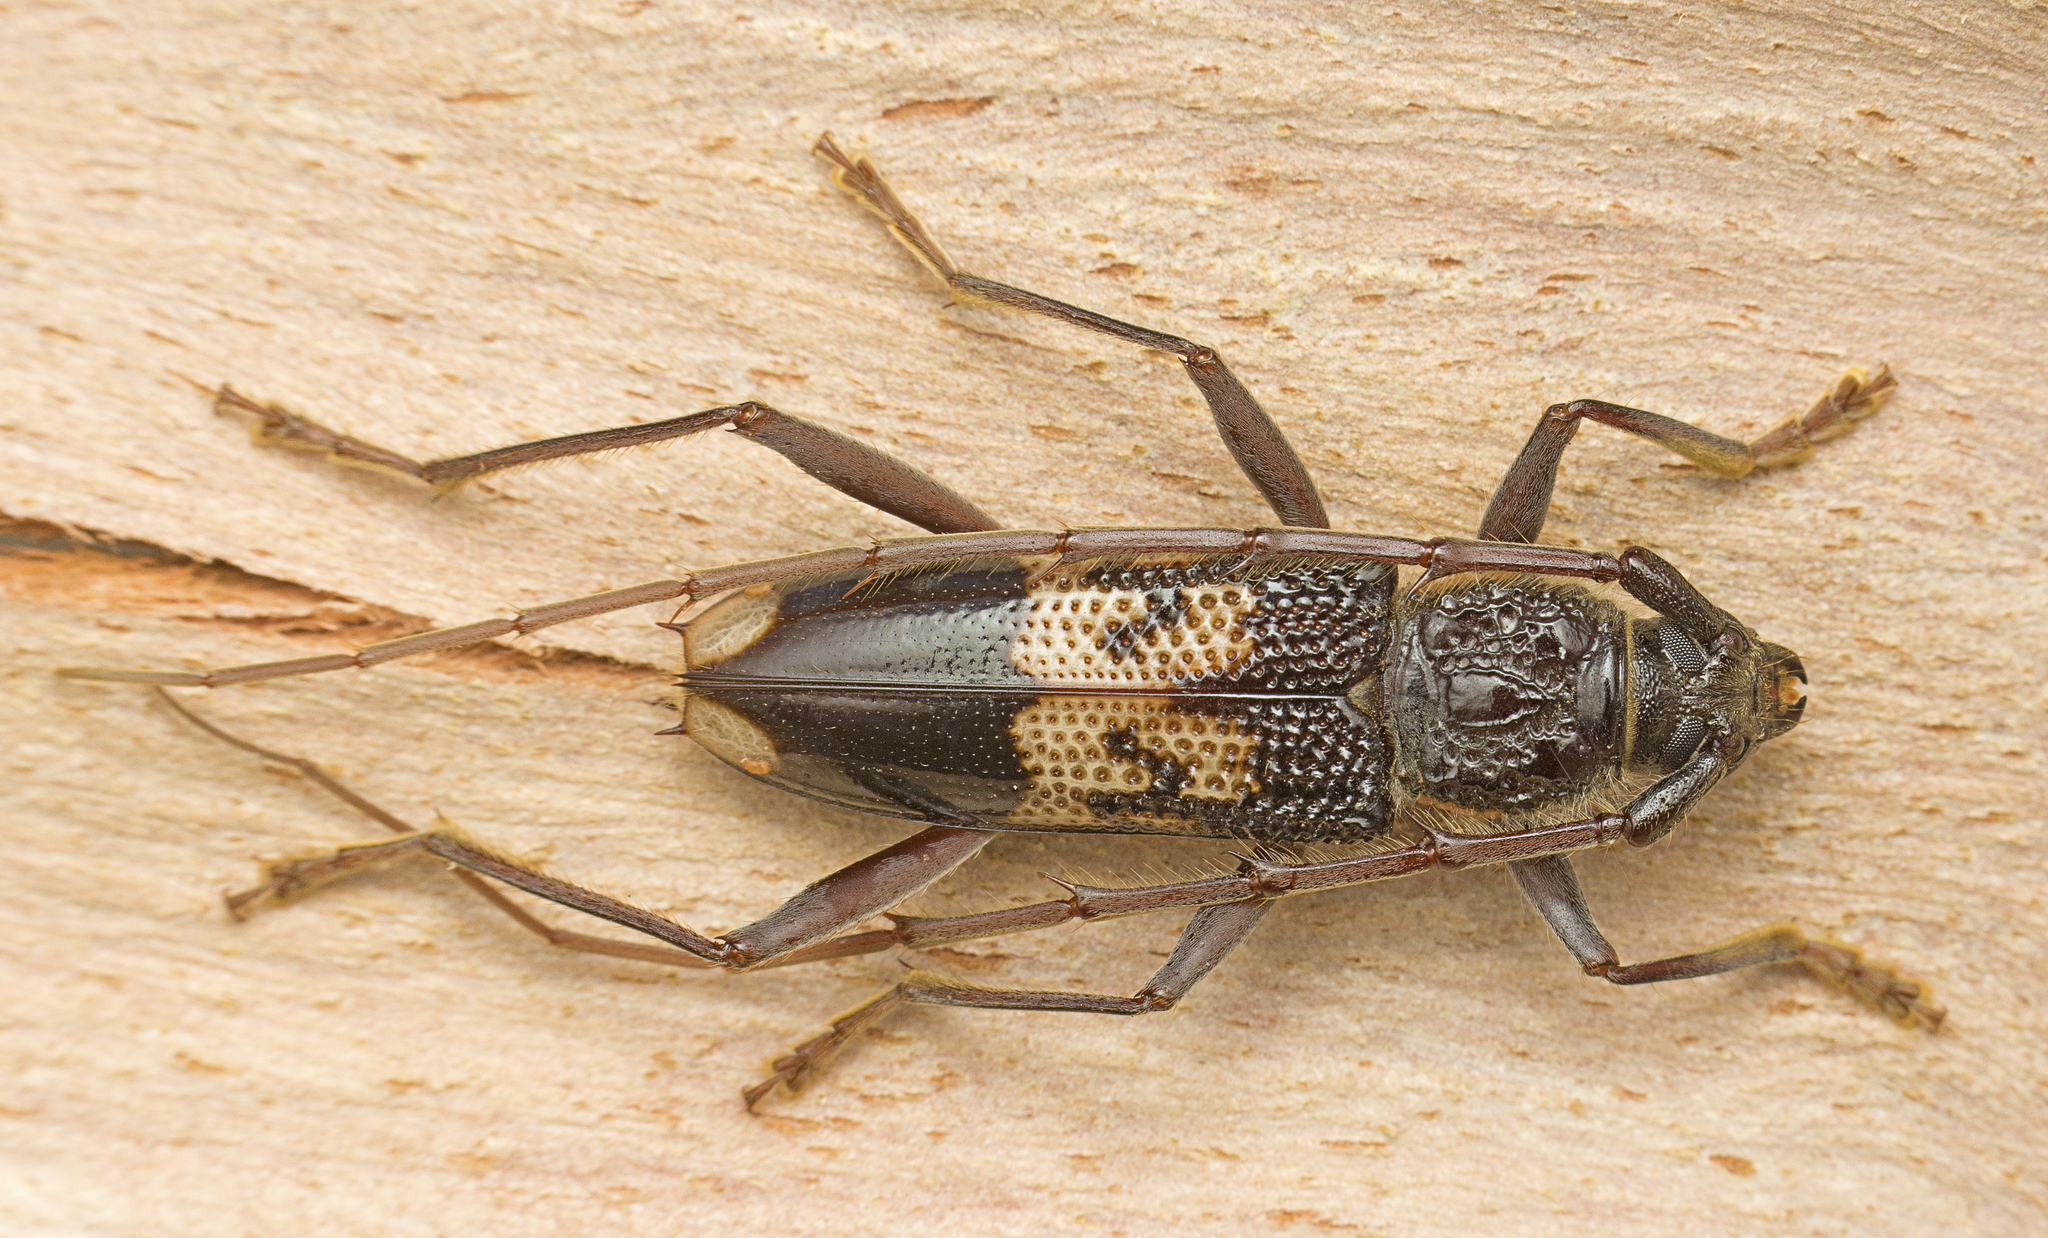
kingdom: Animalia
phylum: Arthropoda
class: Insecta
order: Coleoptera
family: Cerambycidae
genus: Phoracantha
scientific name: Phoracantha semipunctata
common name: Eucalyptus longhorn borer
